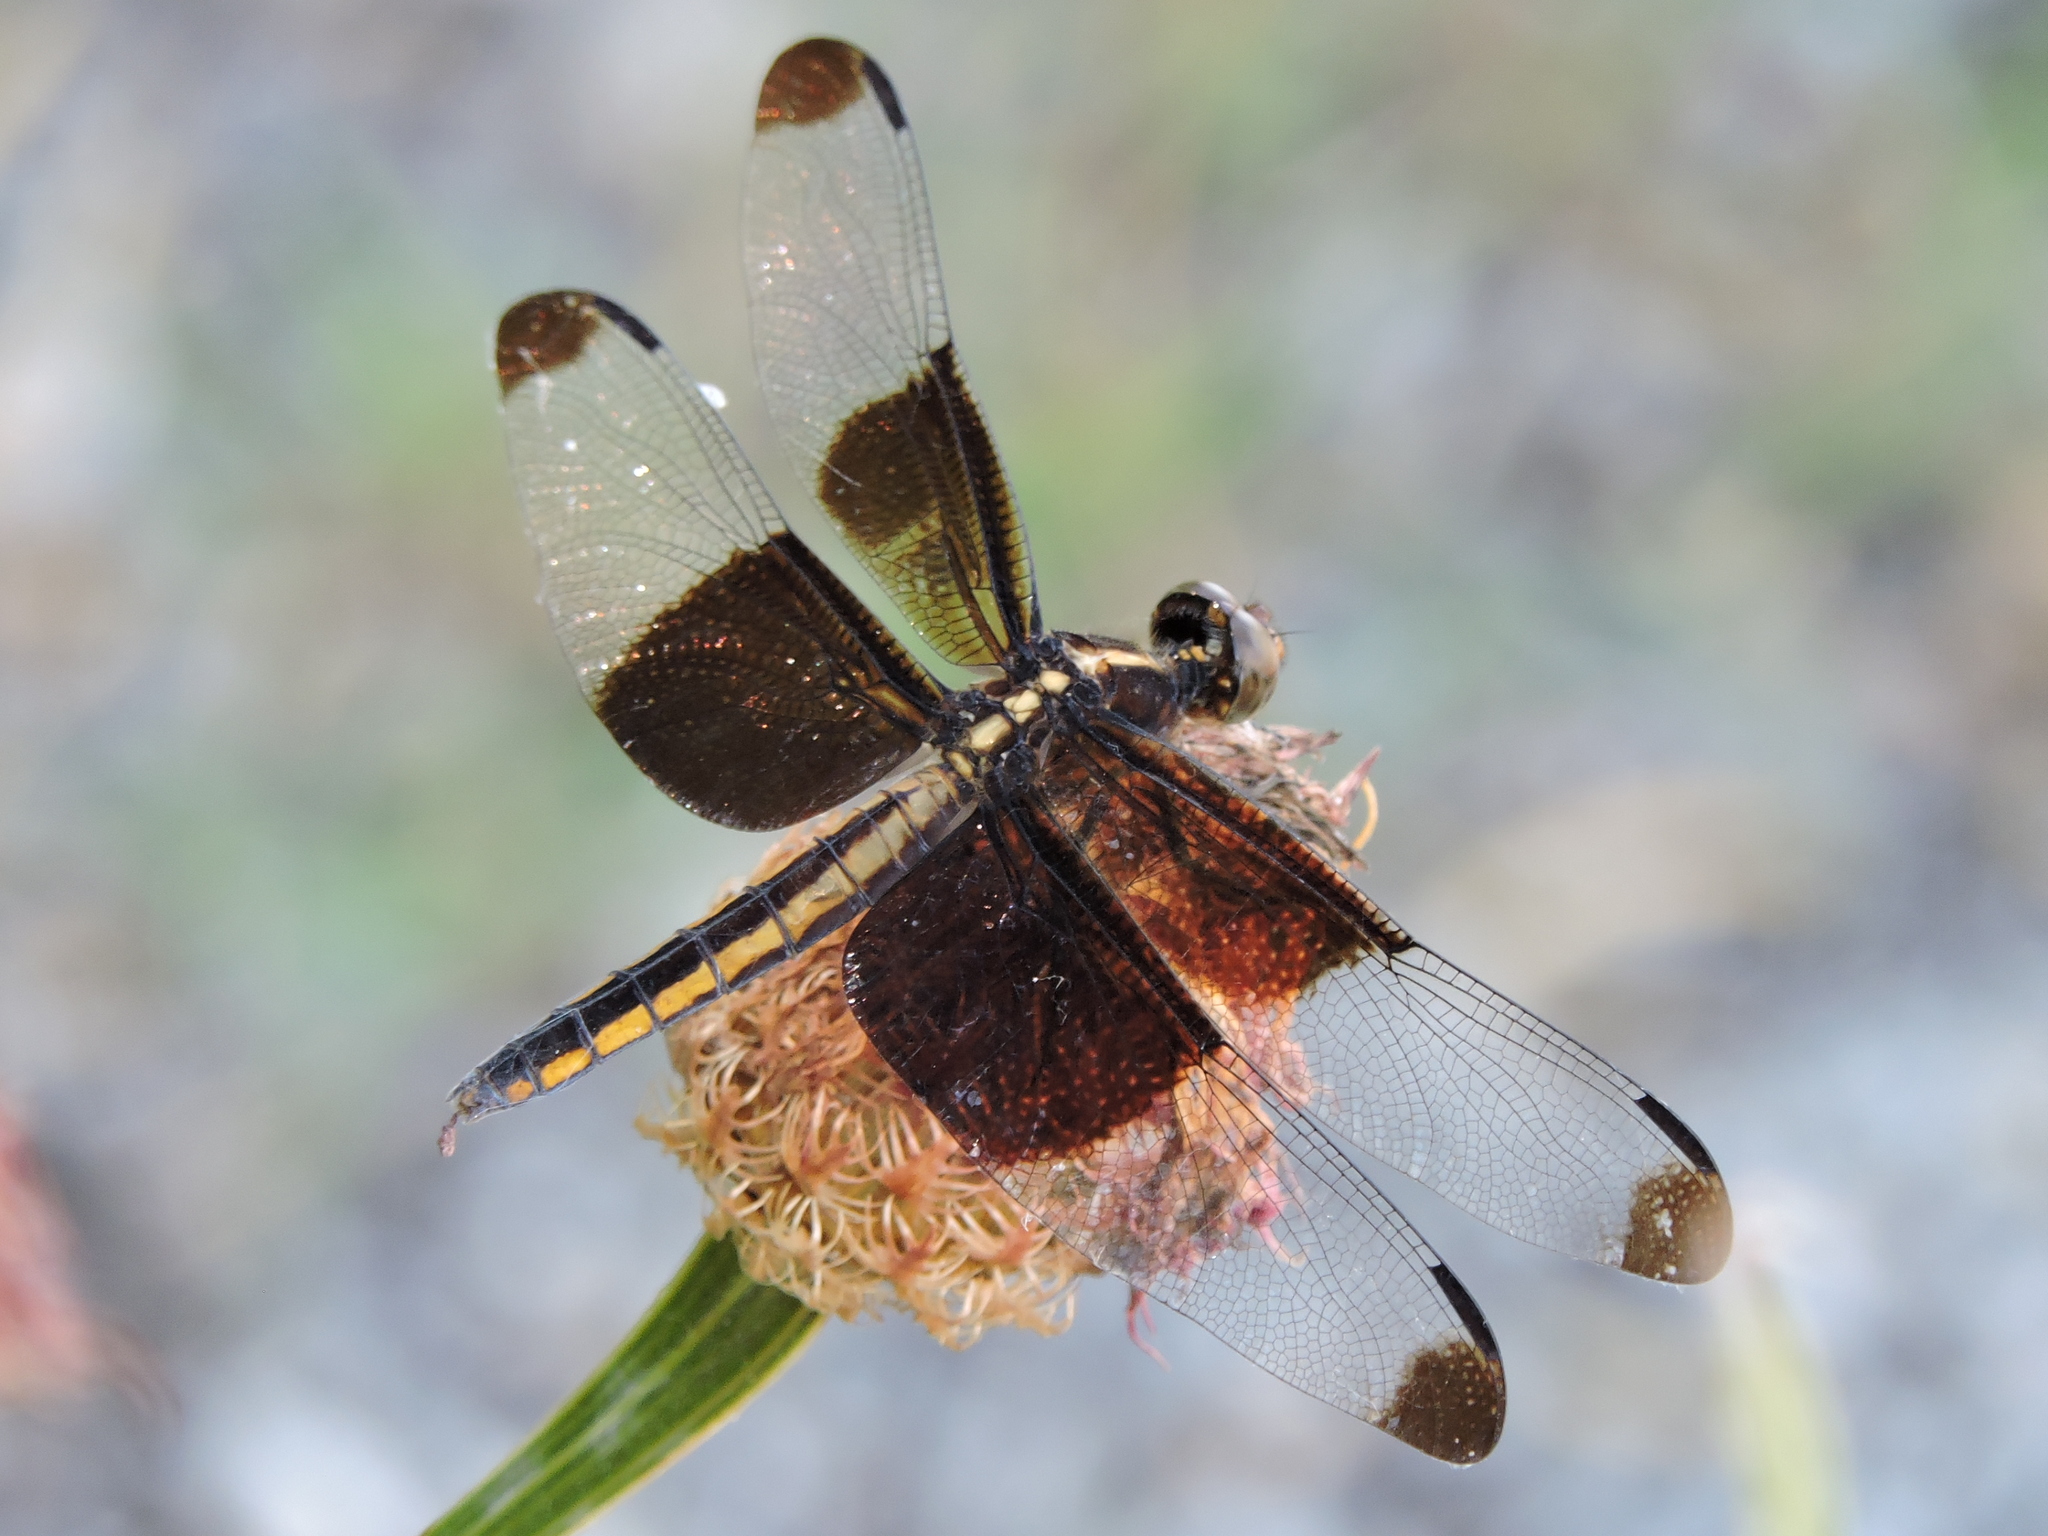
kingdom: Animalia
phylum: Arthropoda
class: Insecta
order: Odonata
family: Libellulidae
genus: Libellula
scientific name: Libellula luctuosa
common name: Widow skimmer
